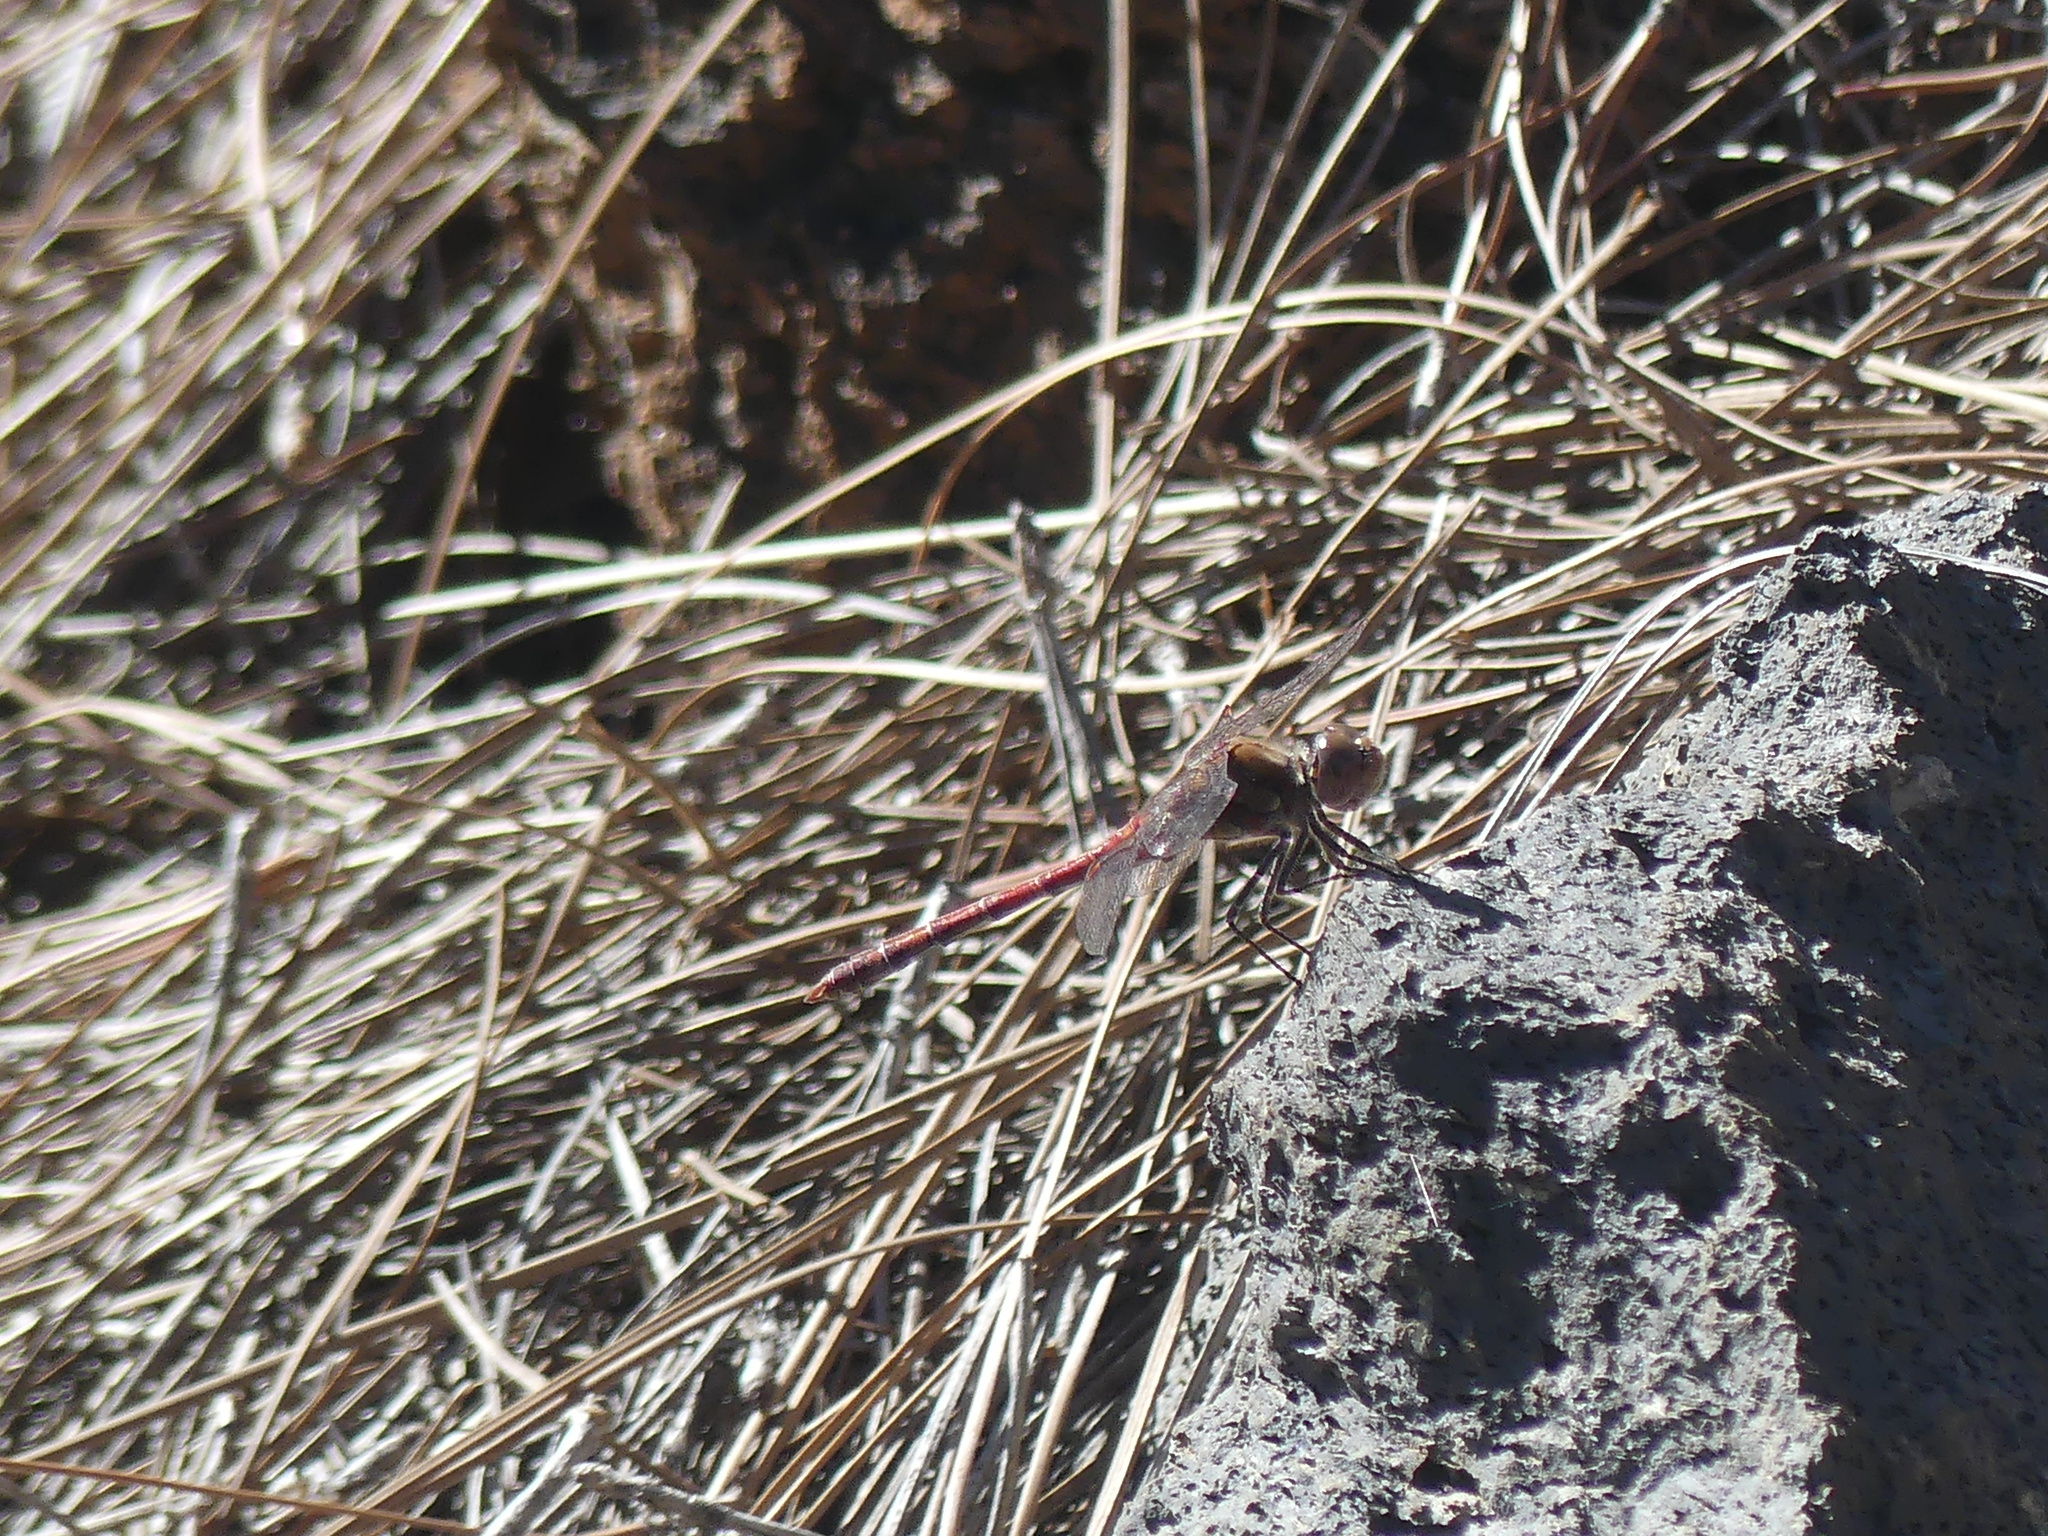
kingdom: Animalia
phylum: Arthropoda
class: Insecta
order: Odonata
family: Libellulidae
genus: Sympetrum
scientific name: Sympetrum nigrifemur
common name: Island darter
